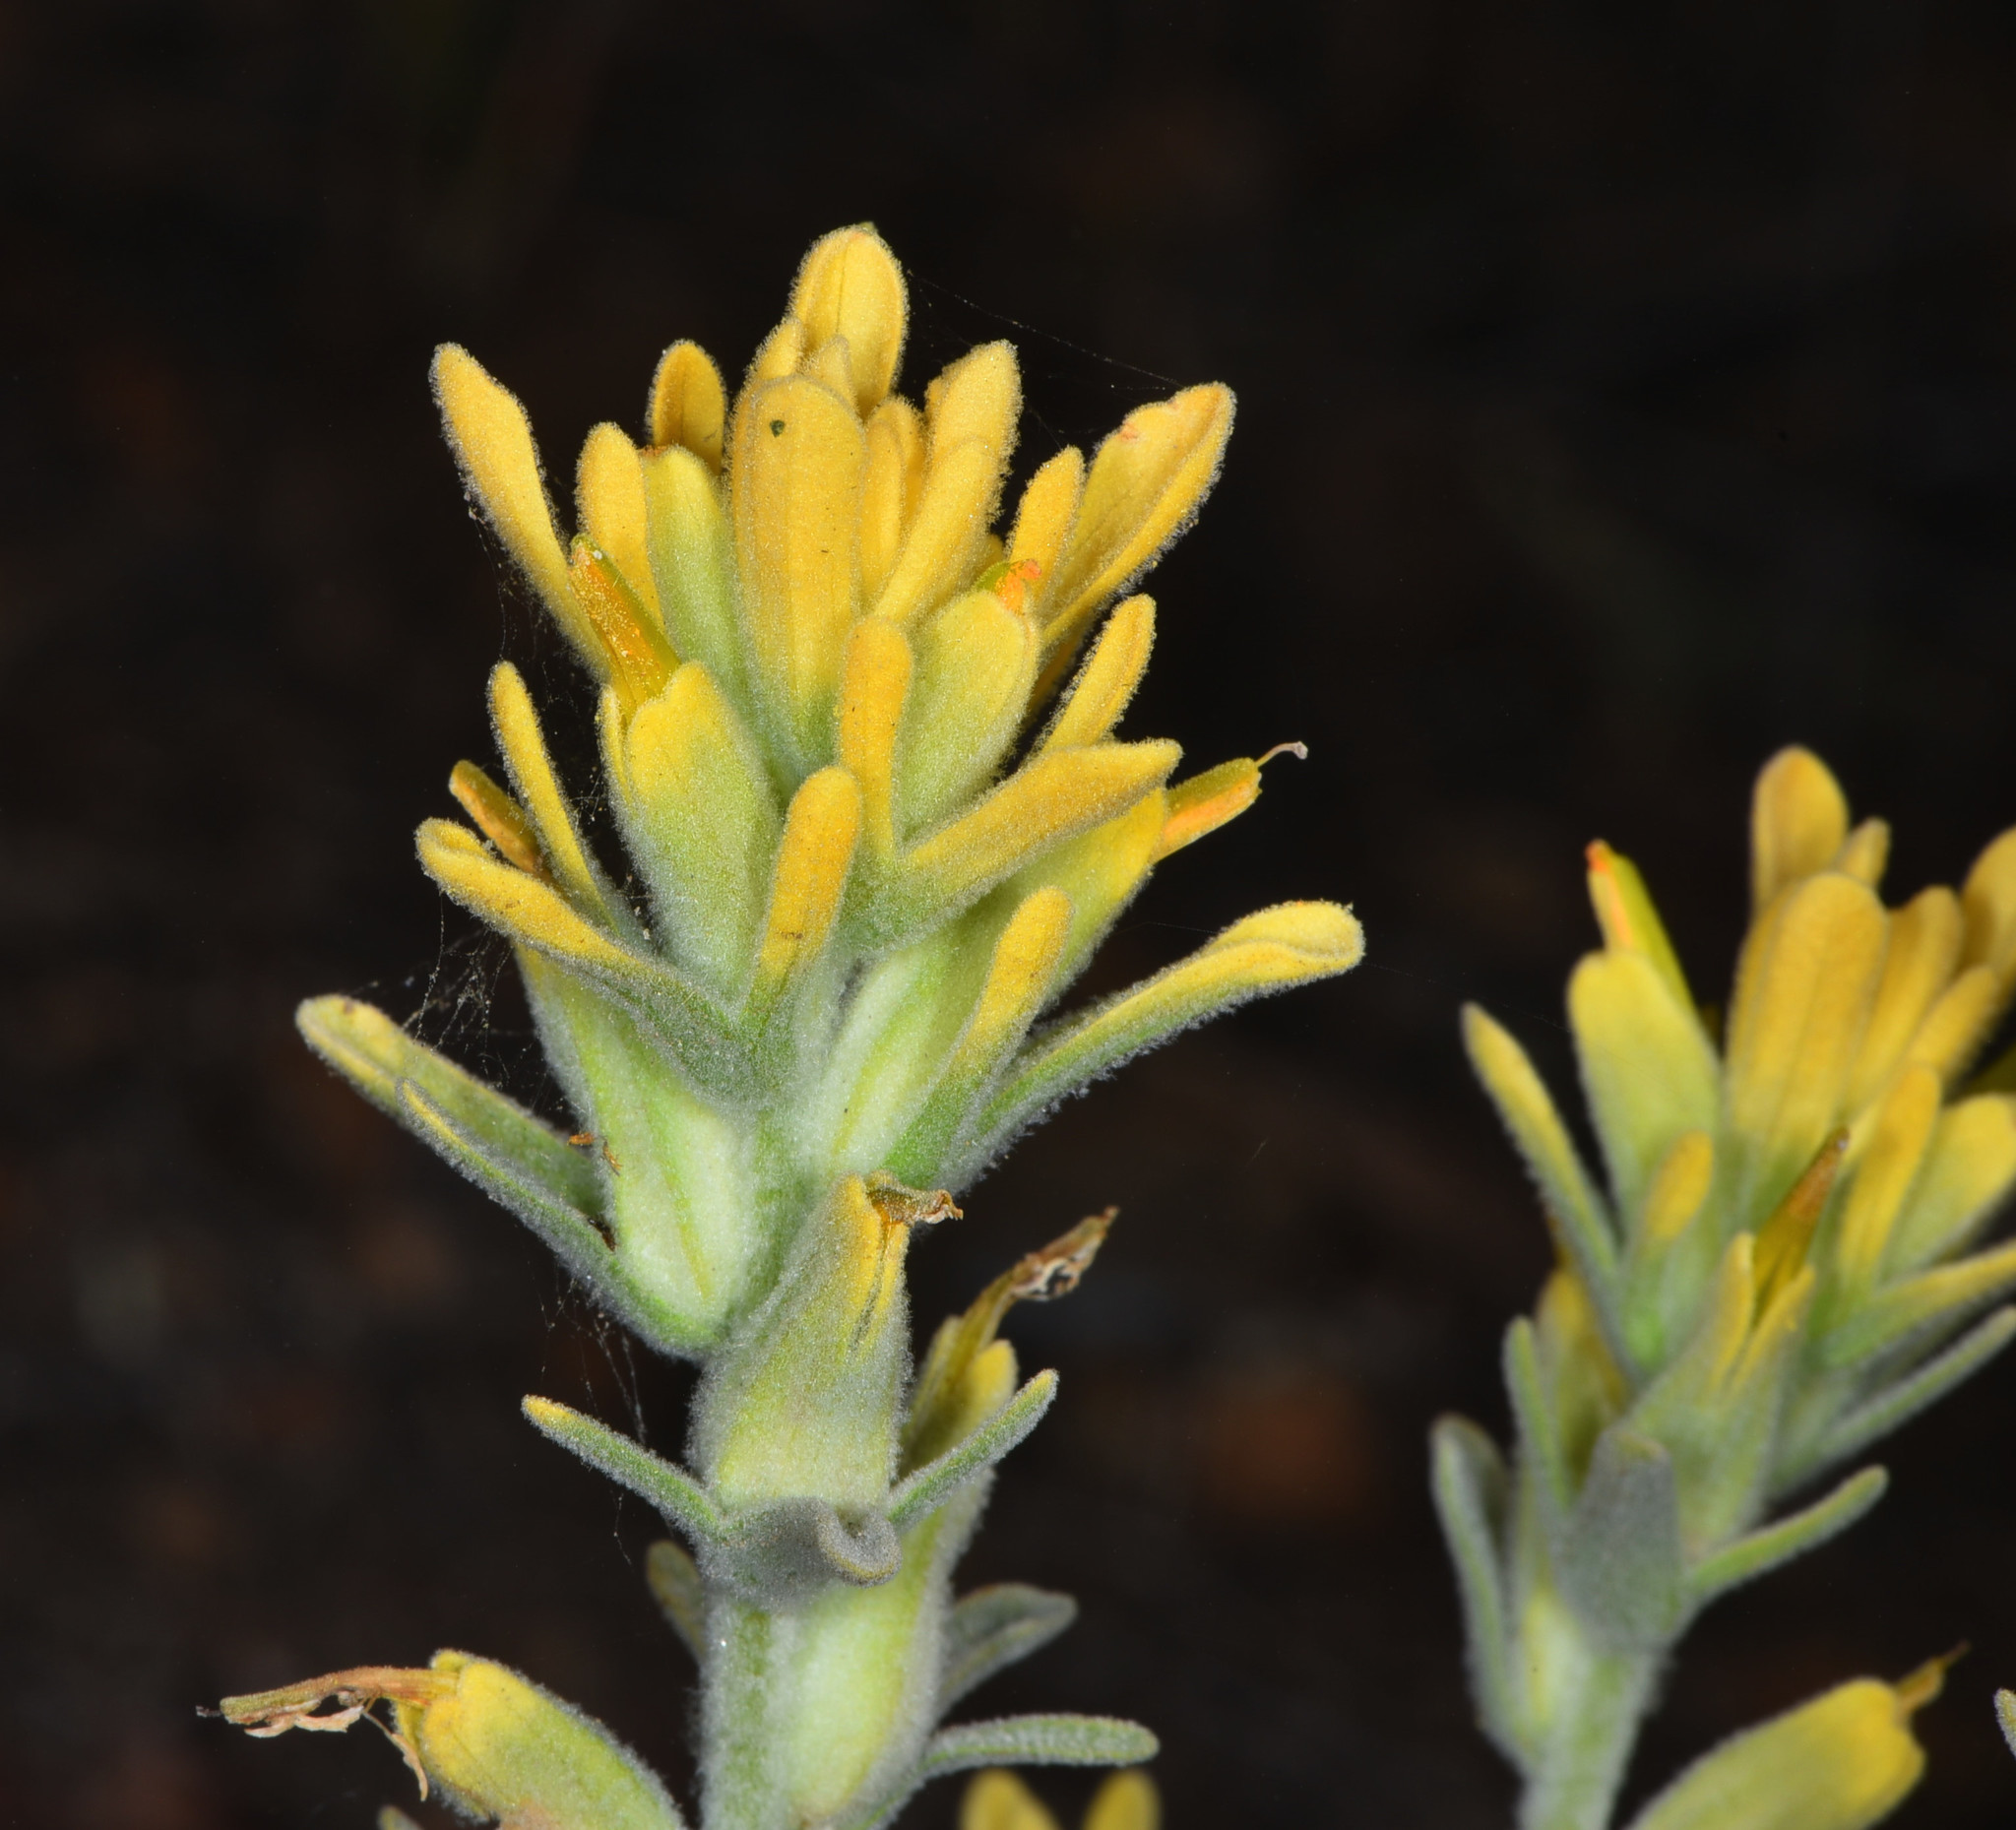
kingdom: Plantae
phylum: Tracheophyta
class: Magnoliopsida
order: Lamiales
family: Orobanchaceae
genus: Castilleja
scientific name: Castilleja foliolosa
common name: Woolly indian paintbrush
